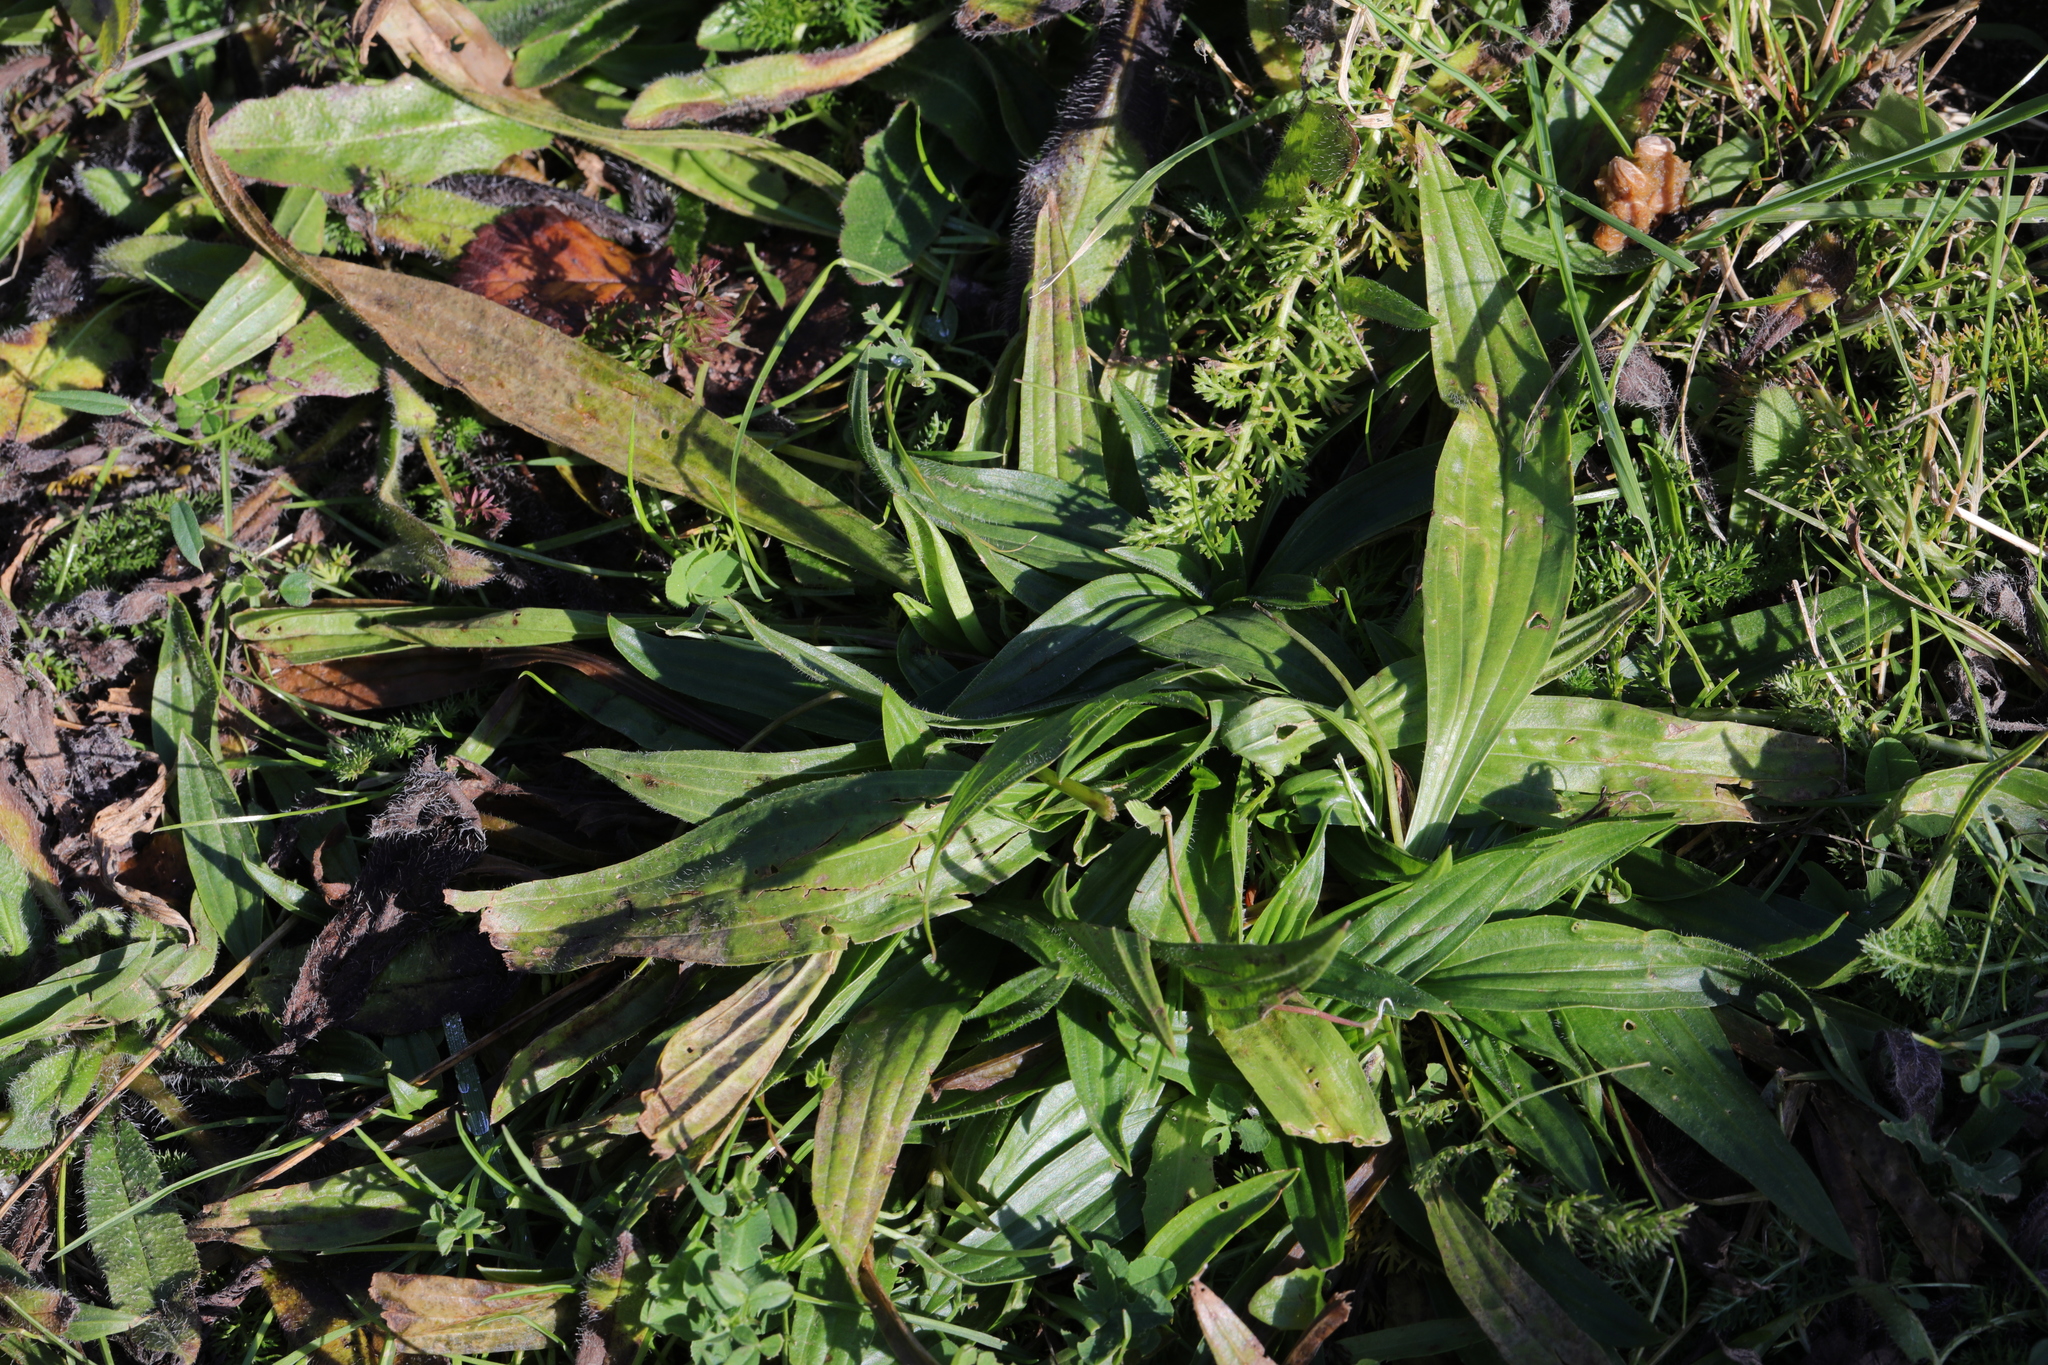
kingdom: Plantae
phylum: Tracheophyta
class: Magnoliopsida
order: Lamiales
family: Plantaginaceae
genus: Plantago
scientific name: Plantago lanceolata
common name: Ribwort plantain
